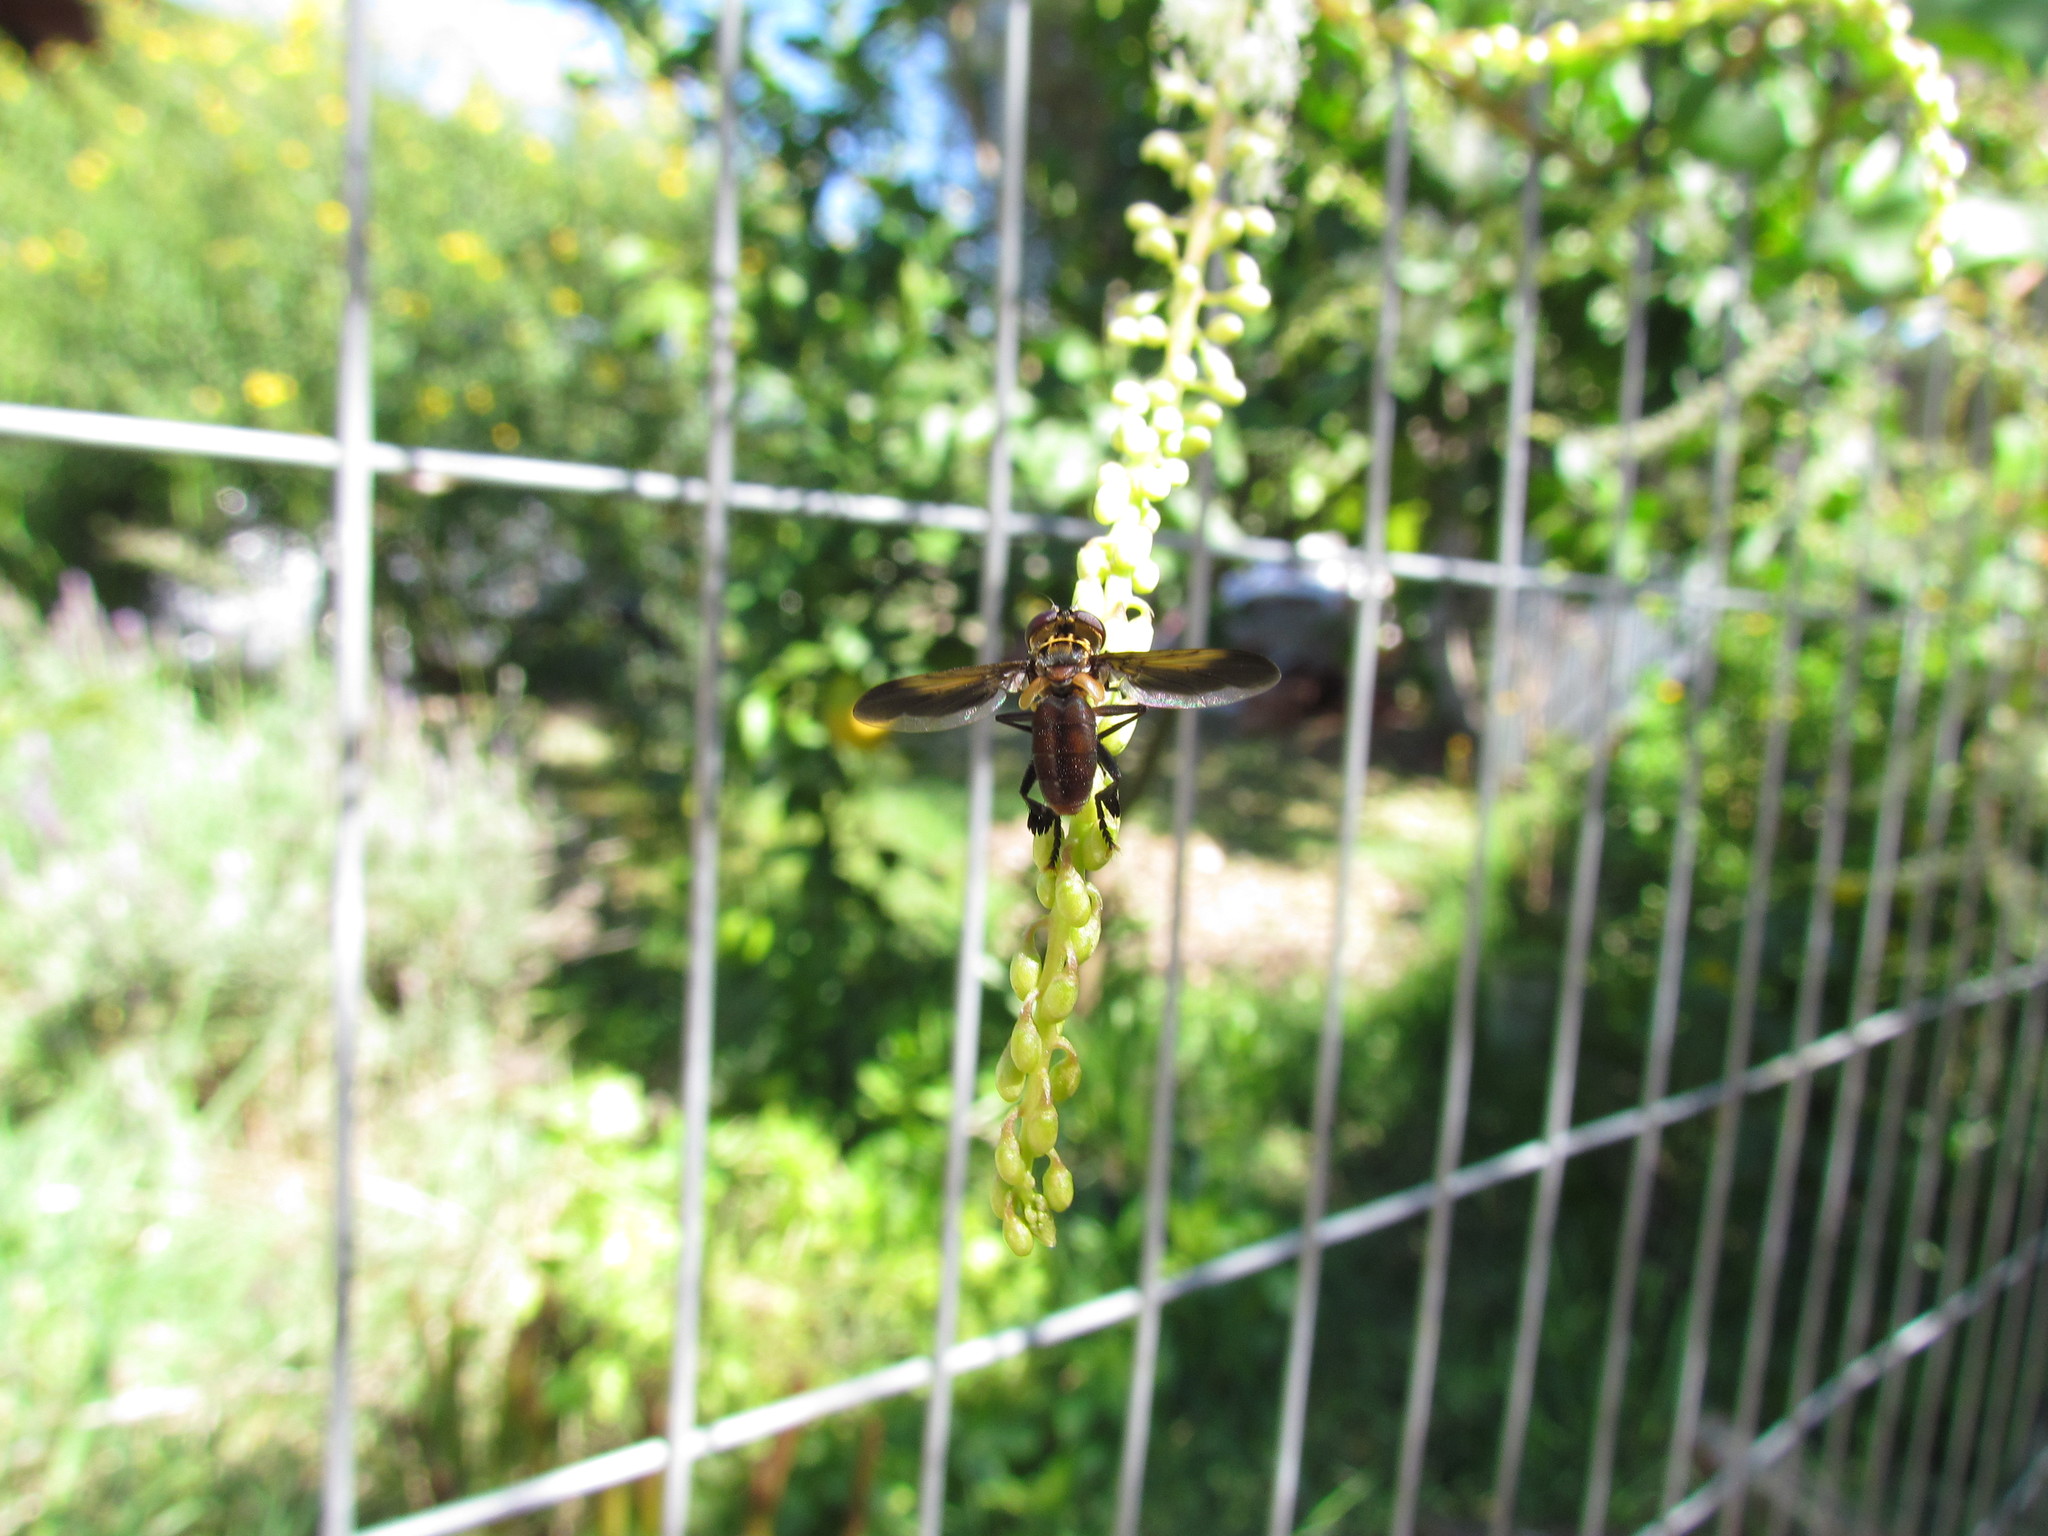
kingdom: Animalia
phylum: Arthropoda
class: Insecta
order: Diptera
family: Tachinidae
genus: Trichopoda
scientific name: Trichopoda pennipes
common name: Tachinid fly
